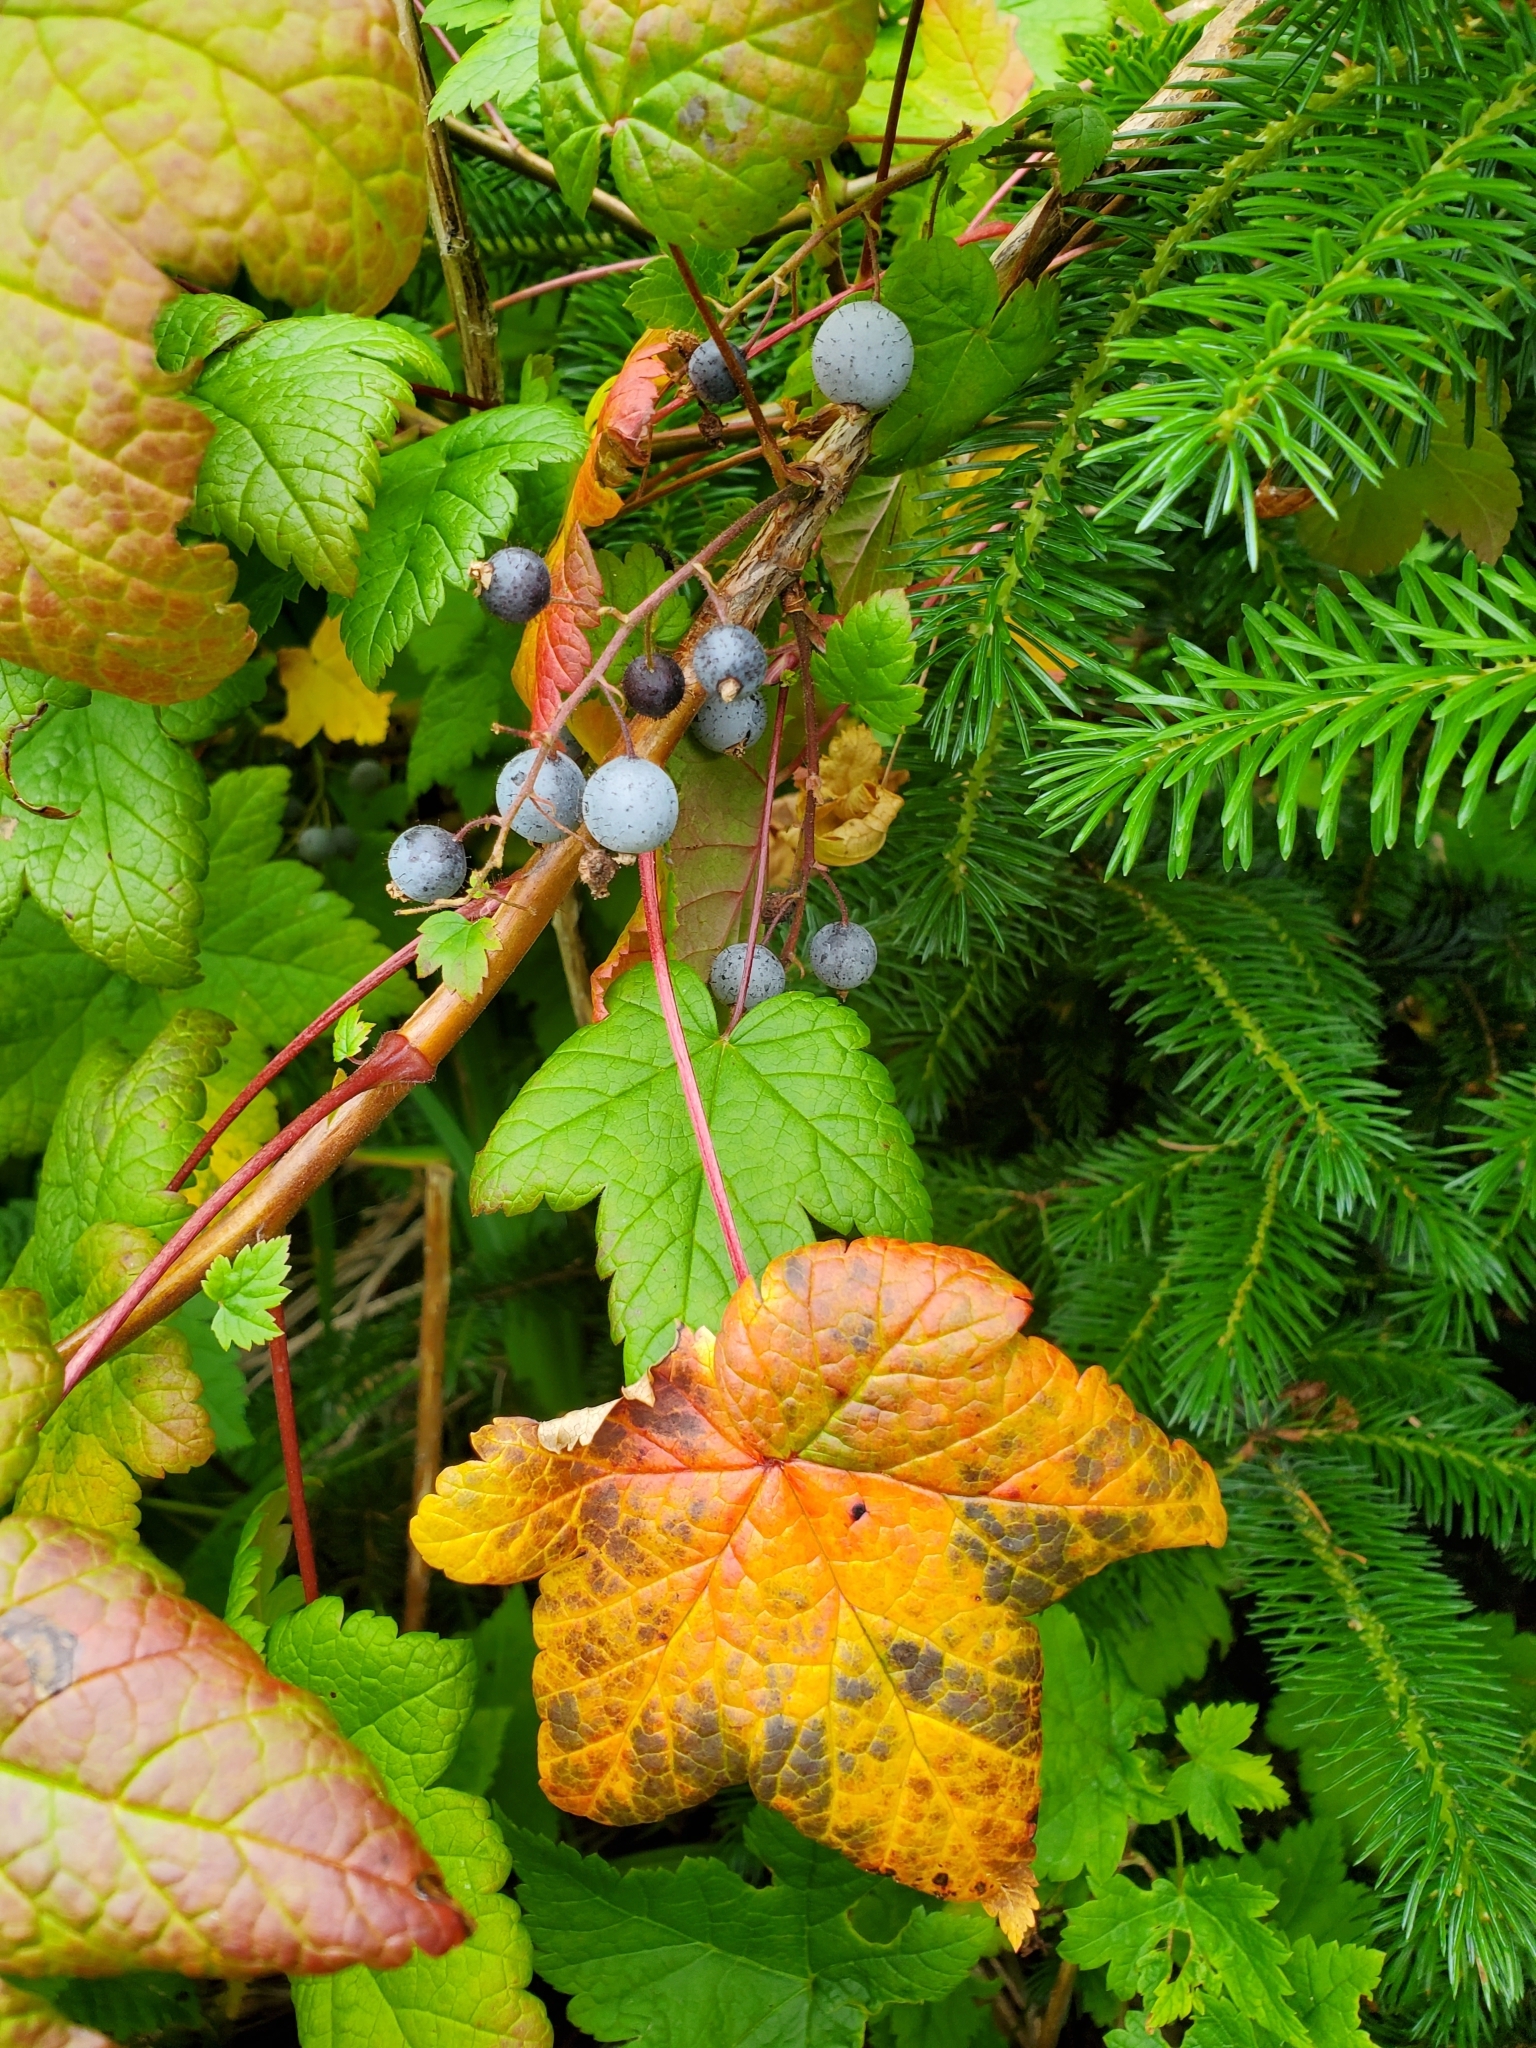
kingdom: Plantae
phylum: Tracheophyta
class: Magnoliopsida
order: Saxifragales
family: Grossulariaceae
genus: Ribes
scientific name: Ribes laxiflorum
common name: Spreading currant
